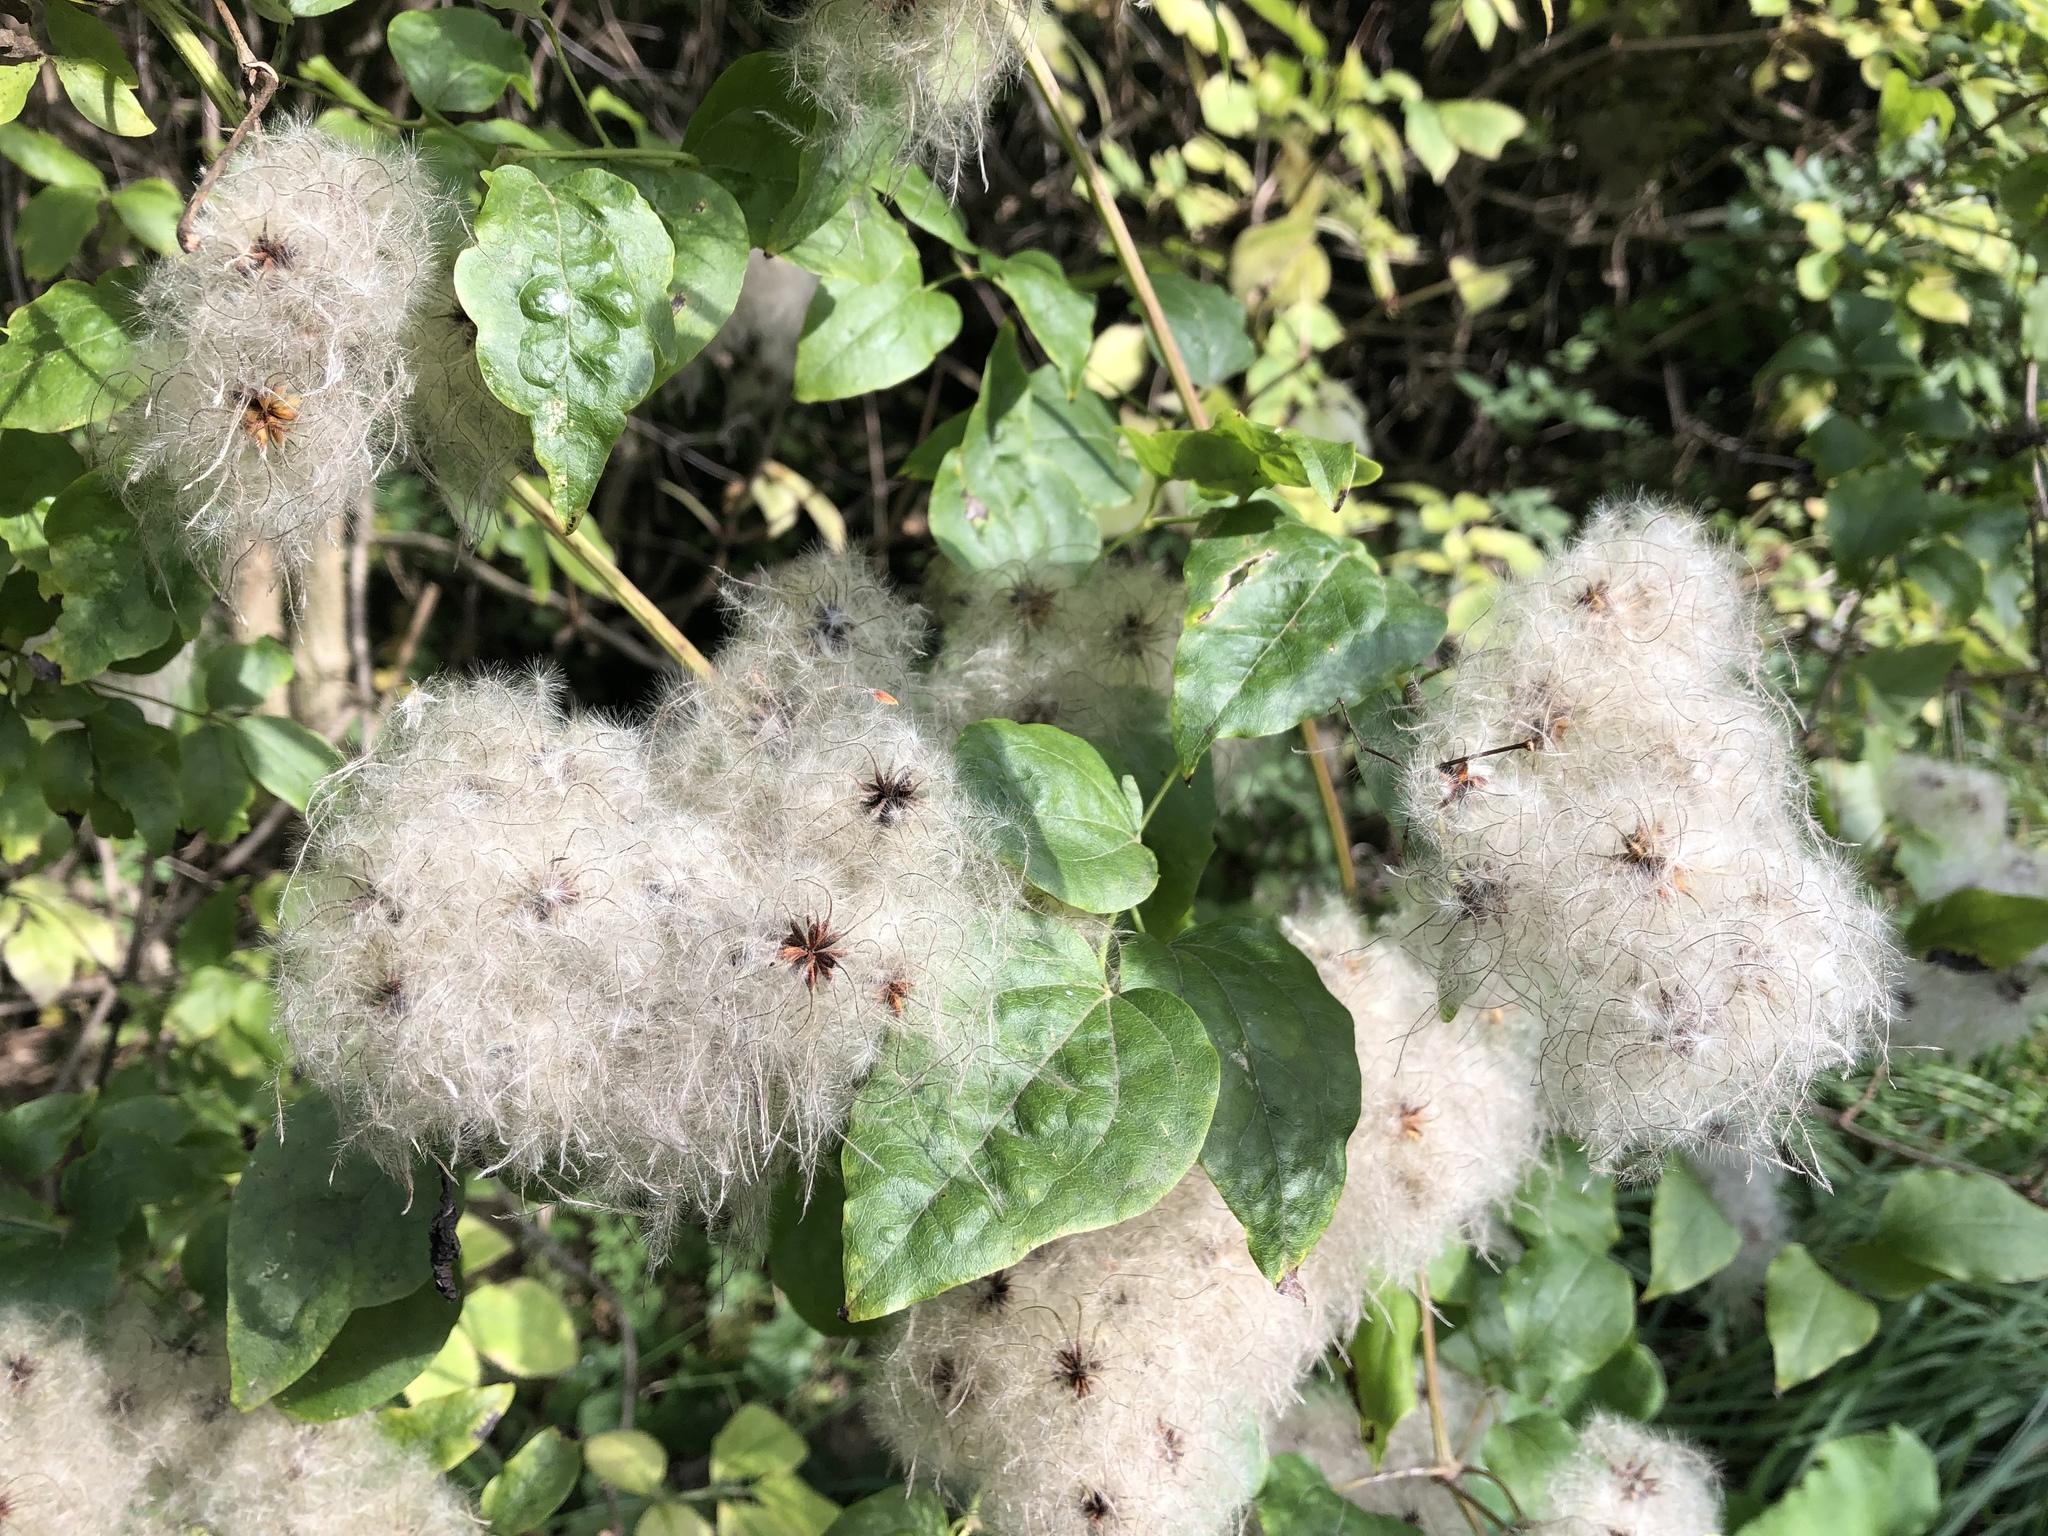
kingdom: Plantae
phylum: Tracheophyta
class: Magnoliopsida
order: Ranunculales
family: Ranunculaceae
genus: Clematis
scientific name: Clematis vitalba
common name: Evergreen clematis
